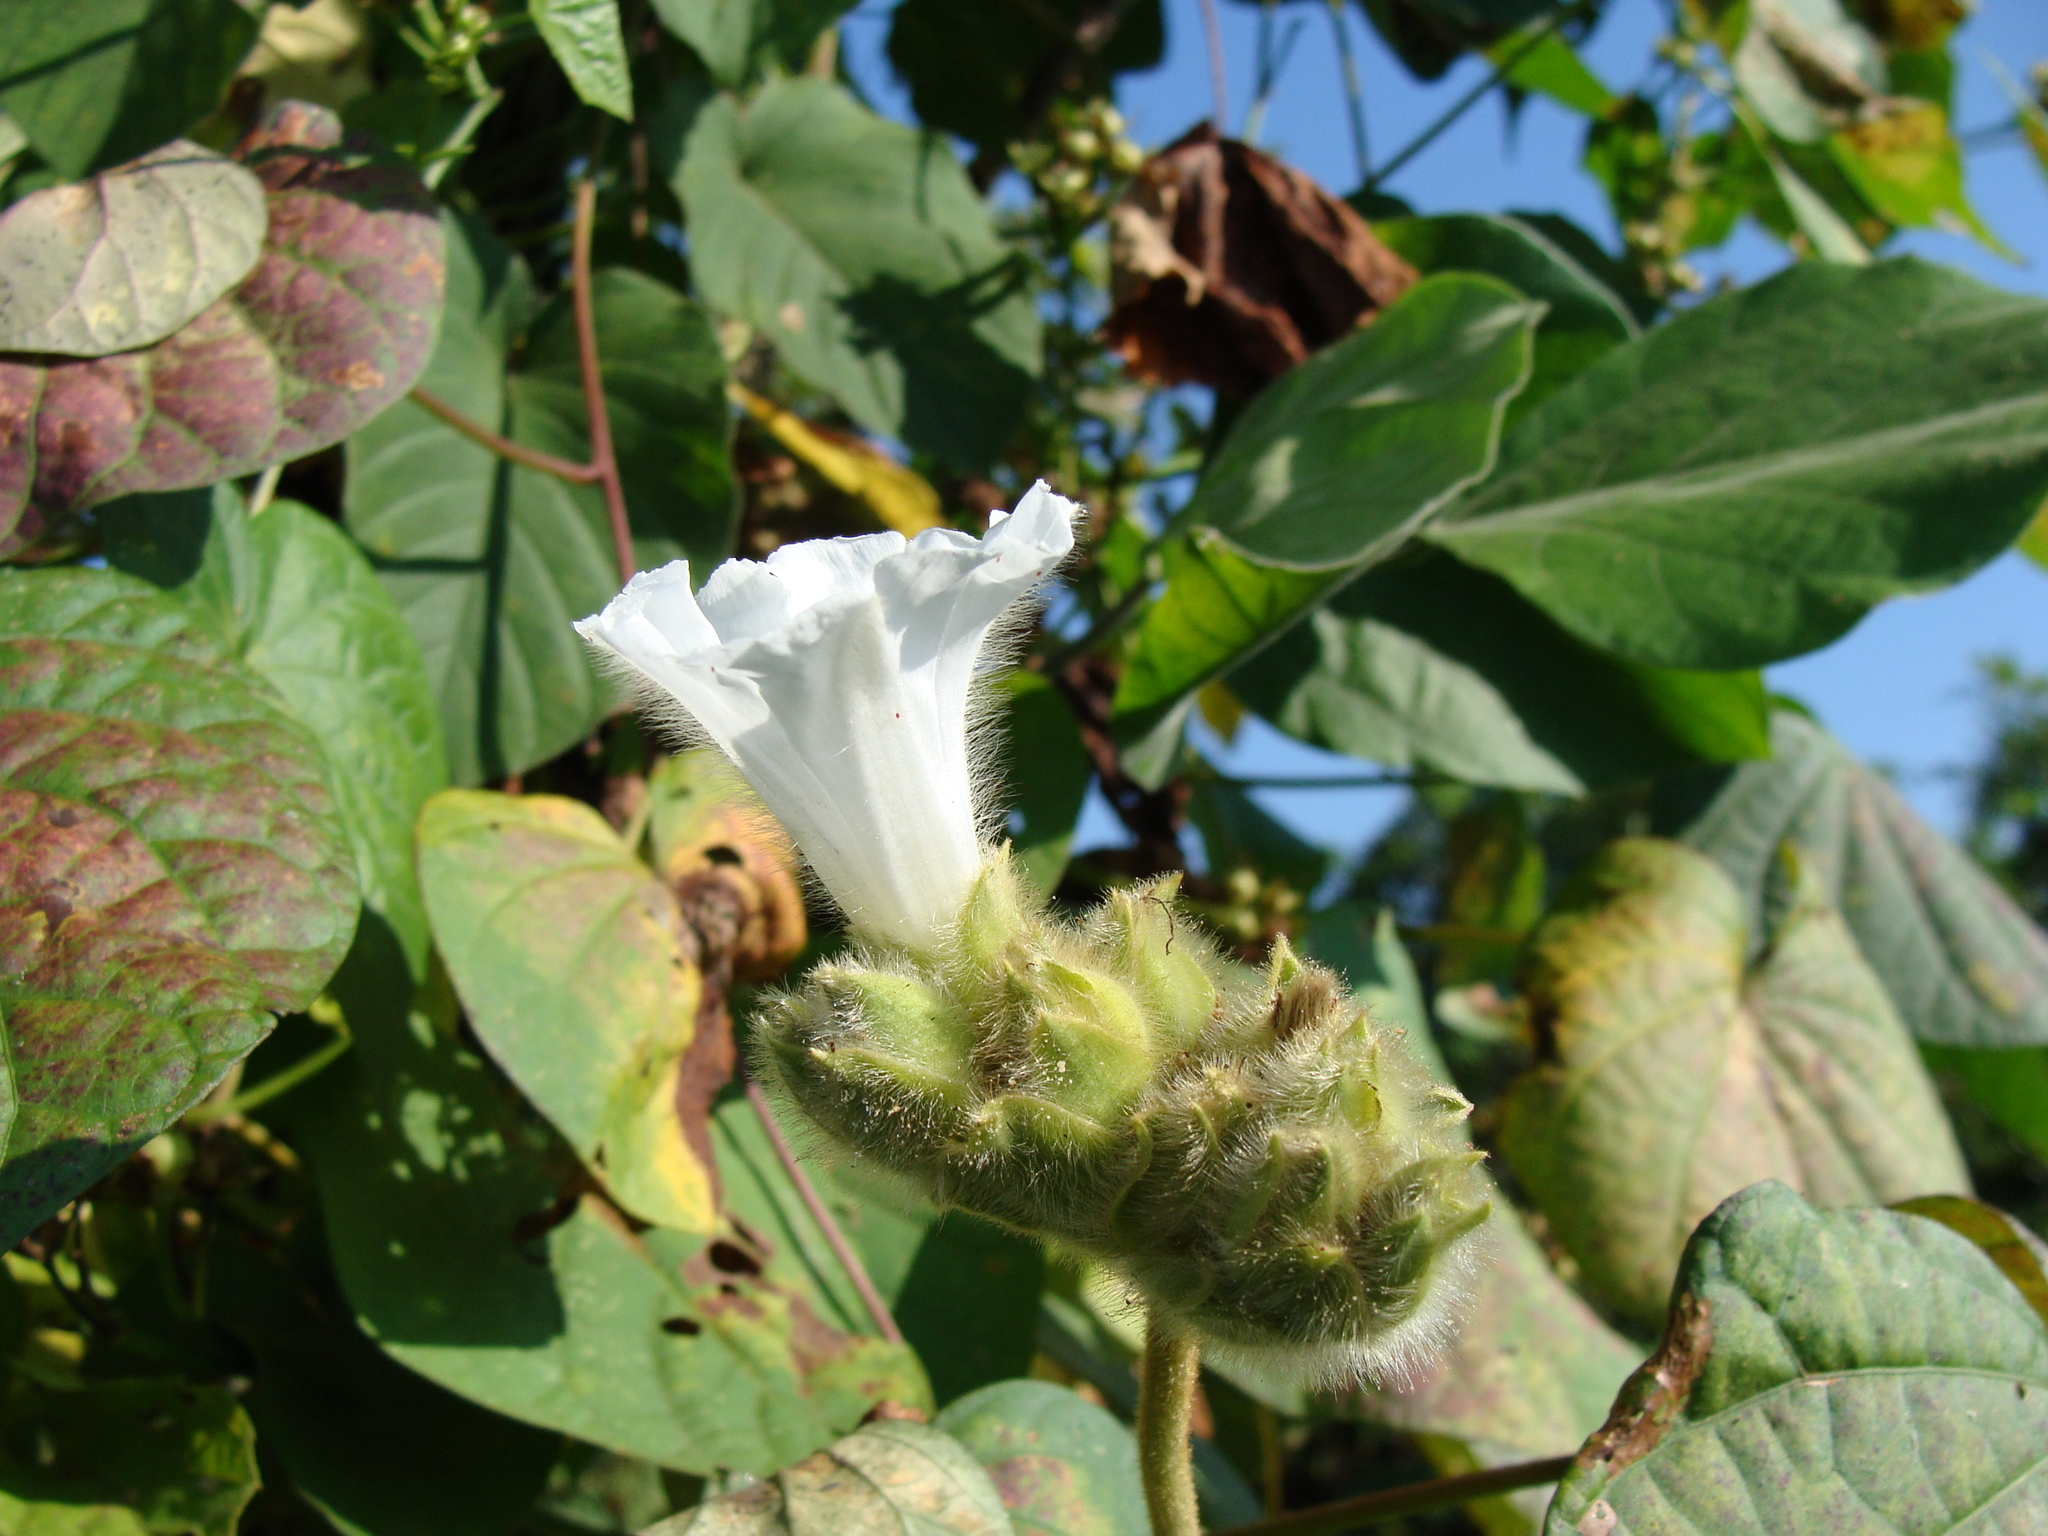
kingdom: Plantae
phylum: Tracheophyta
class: Magnoliopsida
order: Solanales
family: Convolvulaceae
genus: Odonellia
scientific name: Odonellia hirtiflora
